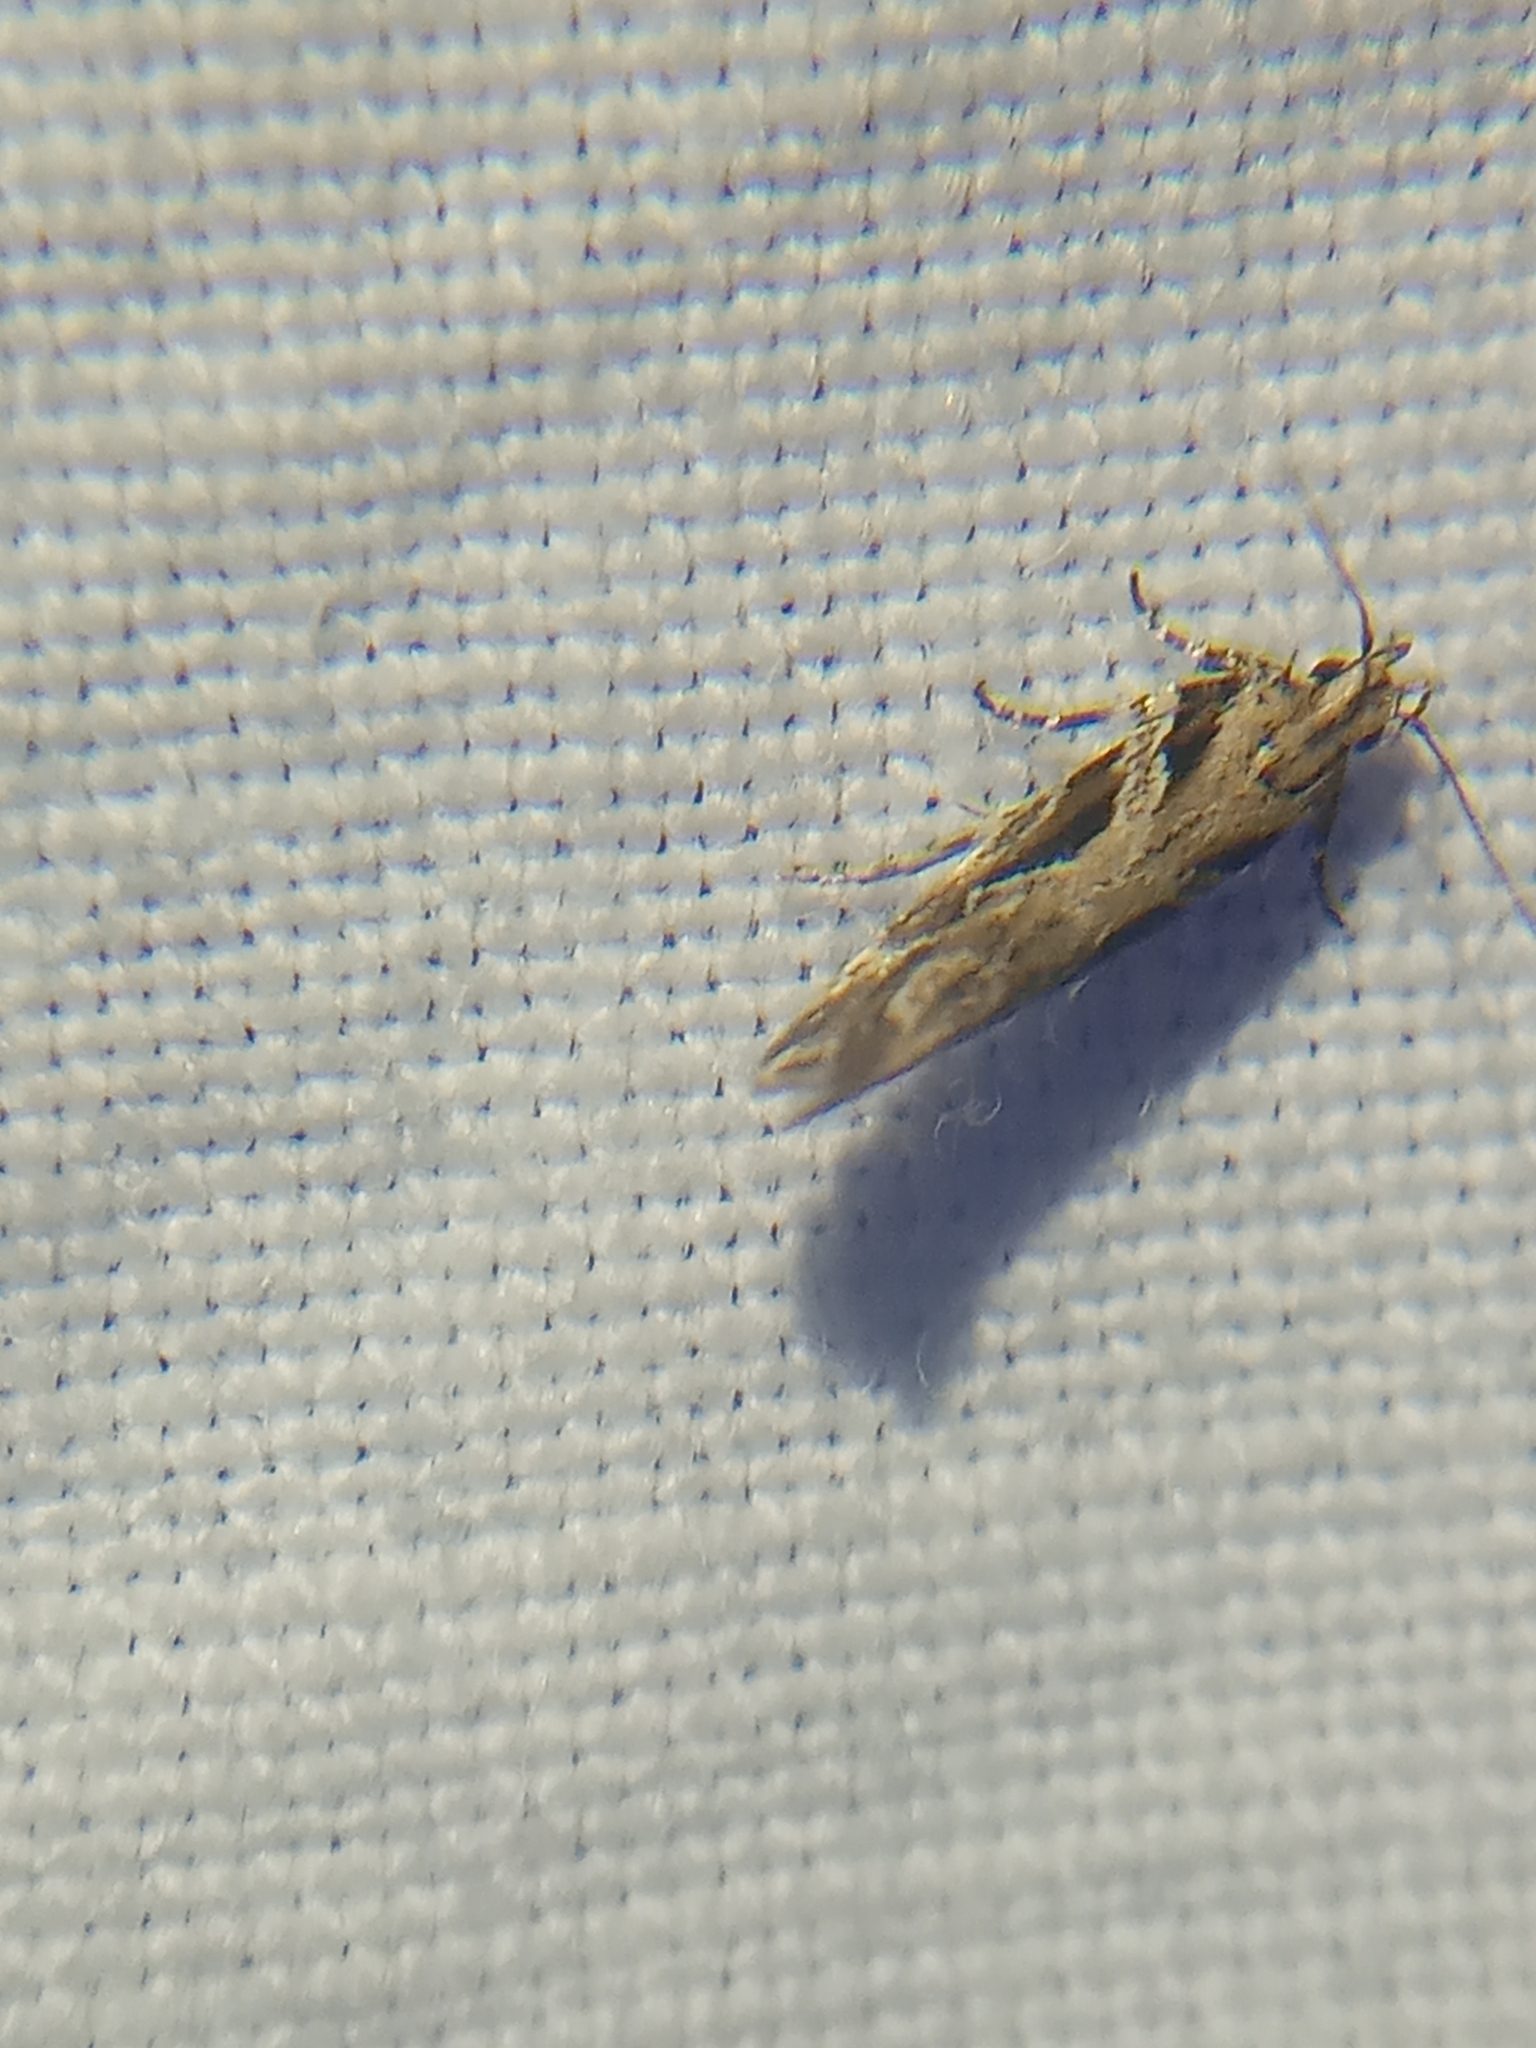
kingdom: Animalia
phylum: Arthropoda
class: Insecta
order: Lepidoptera
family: Gelechiidae
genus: Aristotelia
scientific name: Aristotelia ivae
